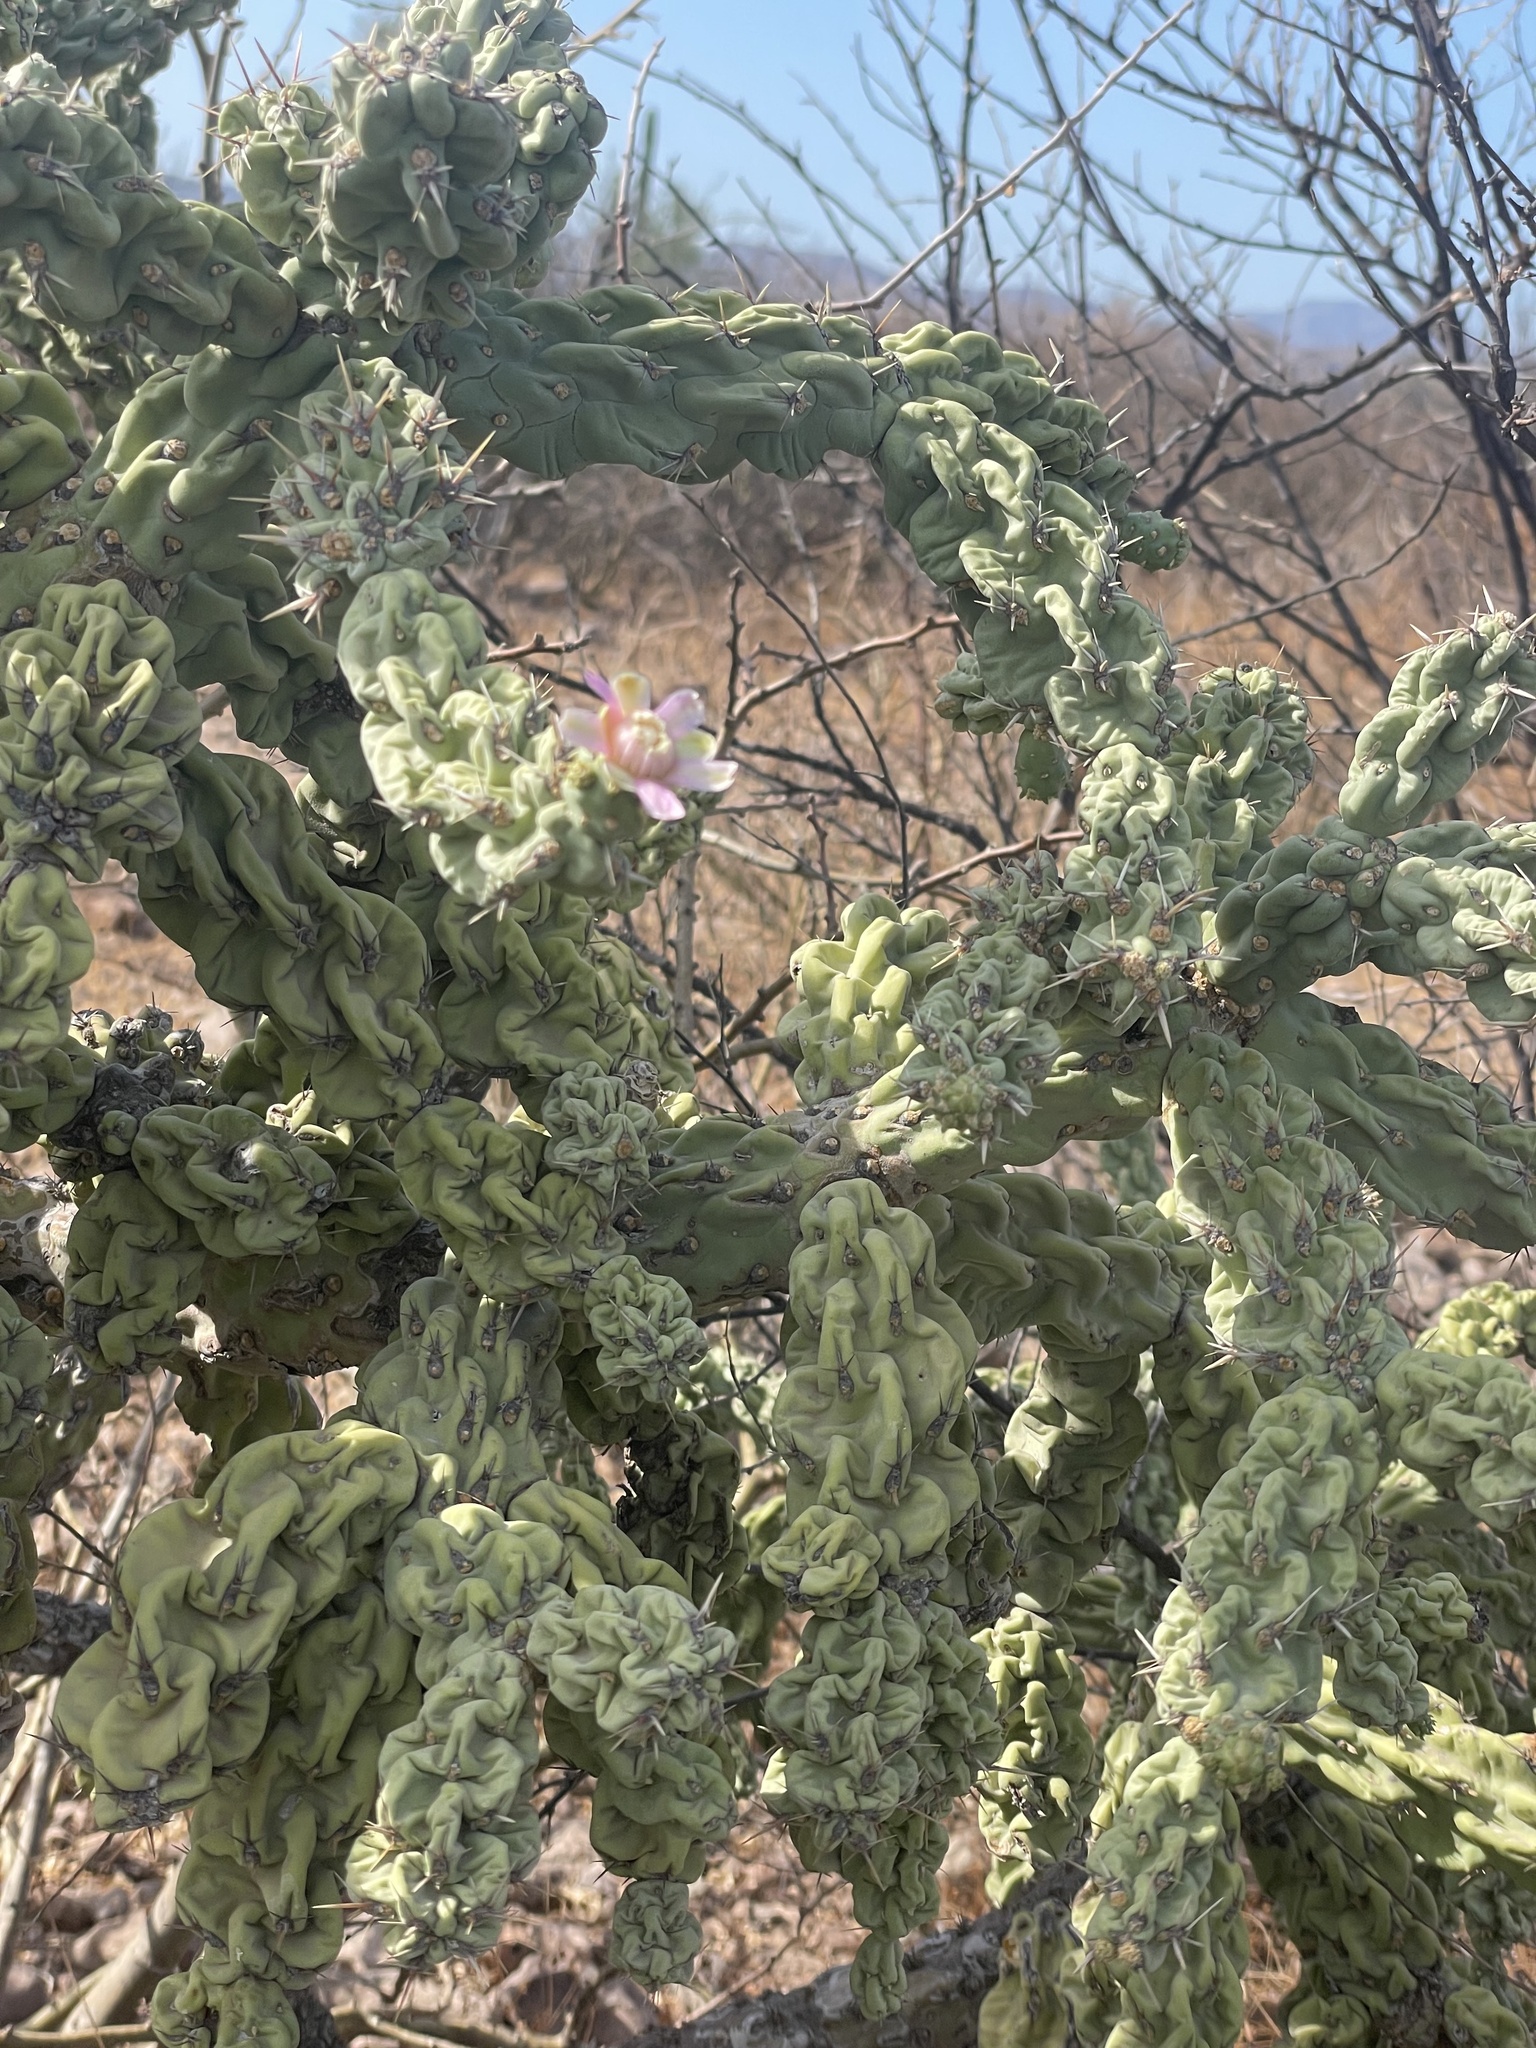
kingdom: Plantae
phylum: Tracheophyta
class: Magnoliopsida
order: Caryophyllales
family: Cactaceae
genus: Cylindropuntia
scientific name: Cylindropuntia cholla
